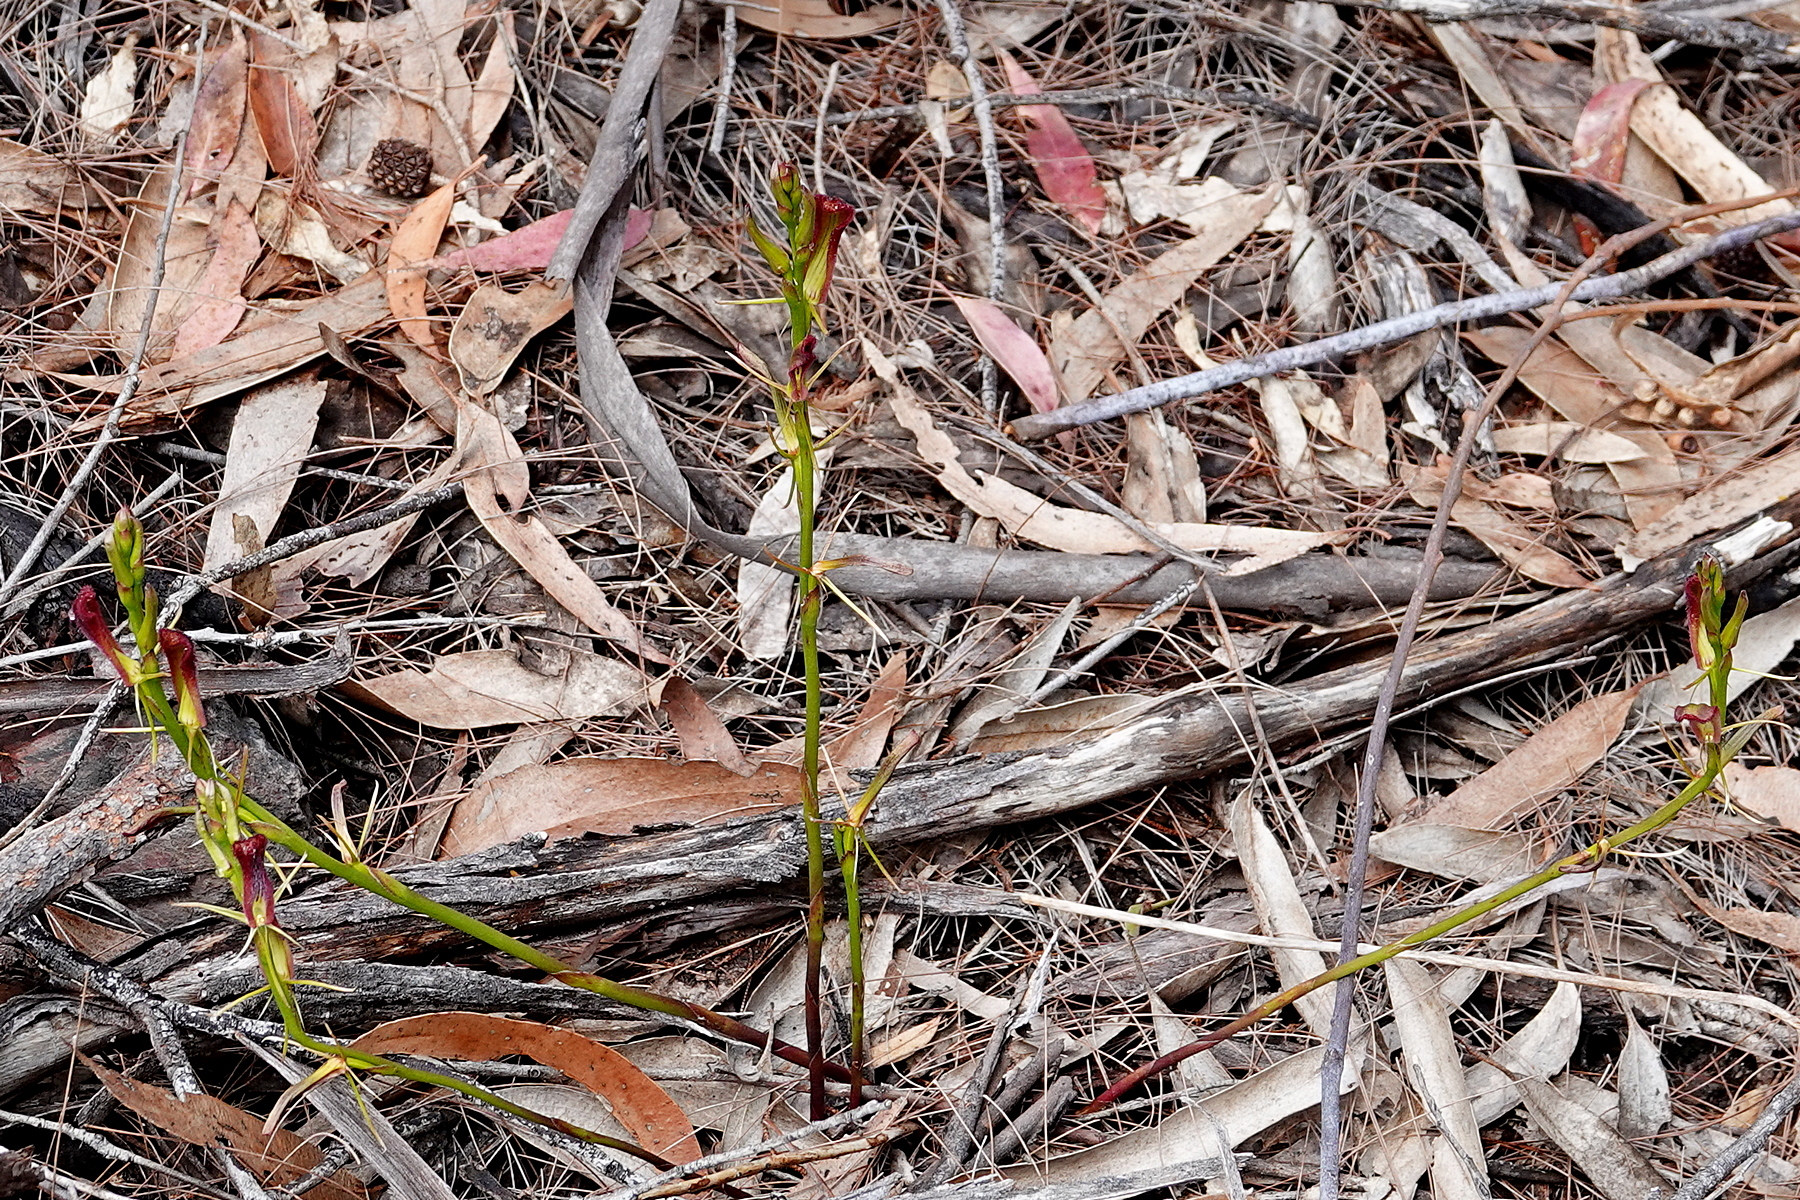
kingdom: Plantae
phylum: Tracheophyta
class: Liliopsida
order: Asparagales
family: Orchidaceae
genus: Cryptostylis
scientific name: Cryptostylis hunteriana
